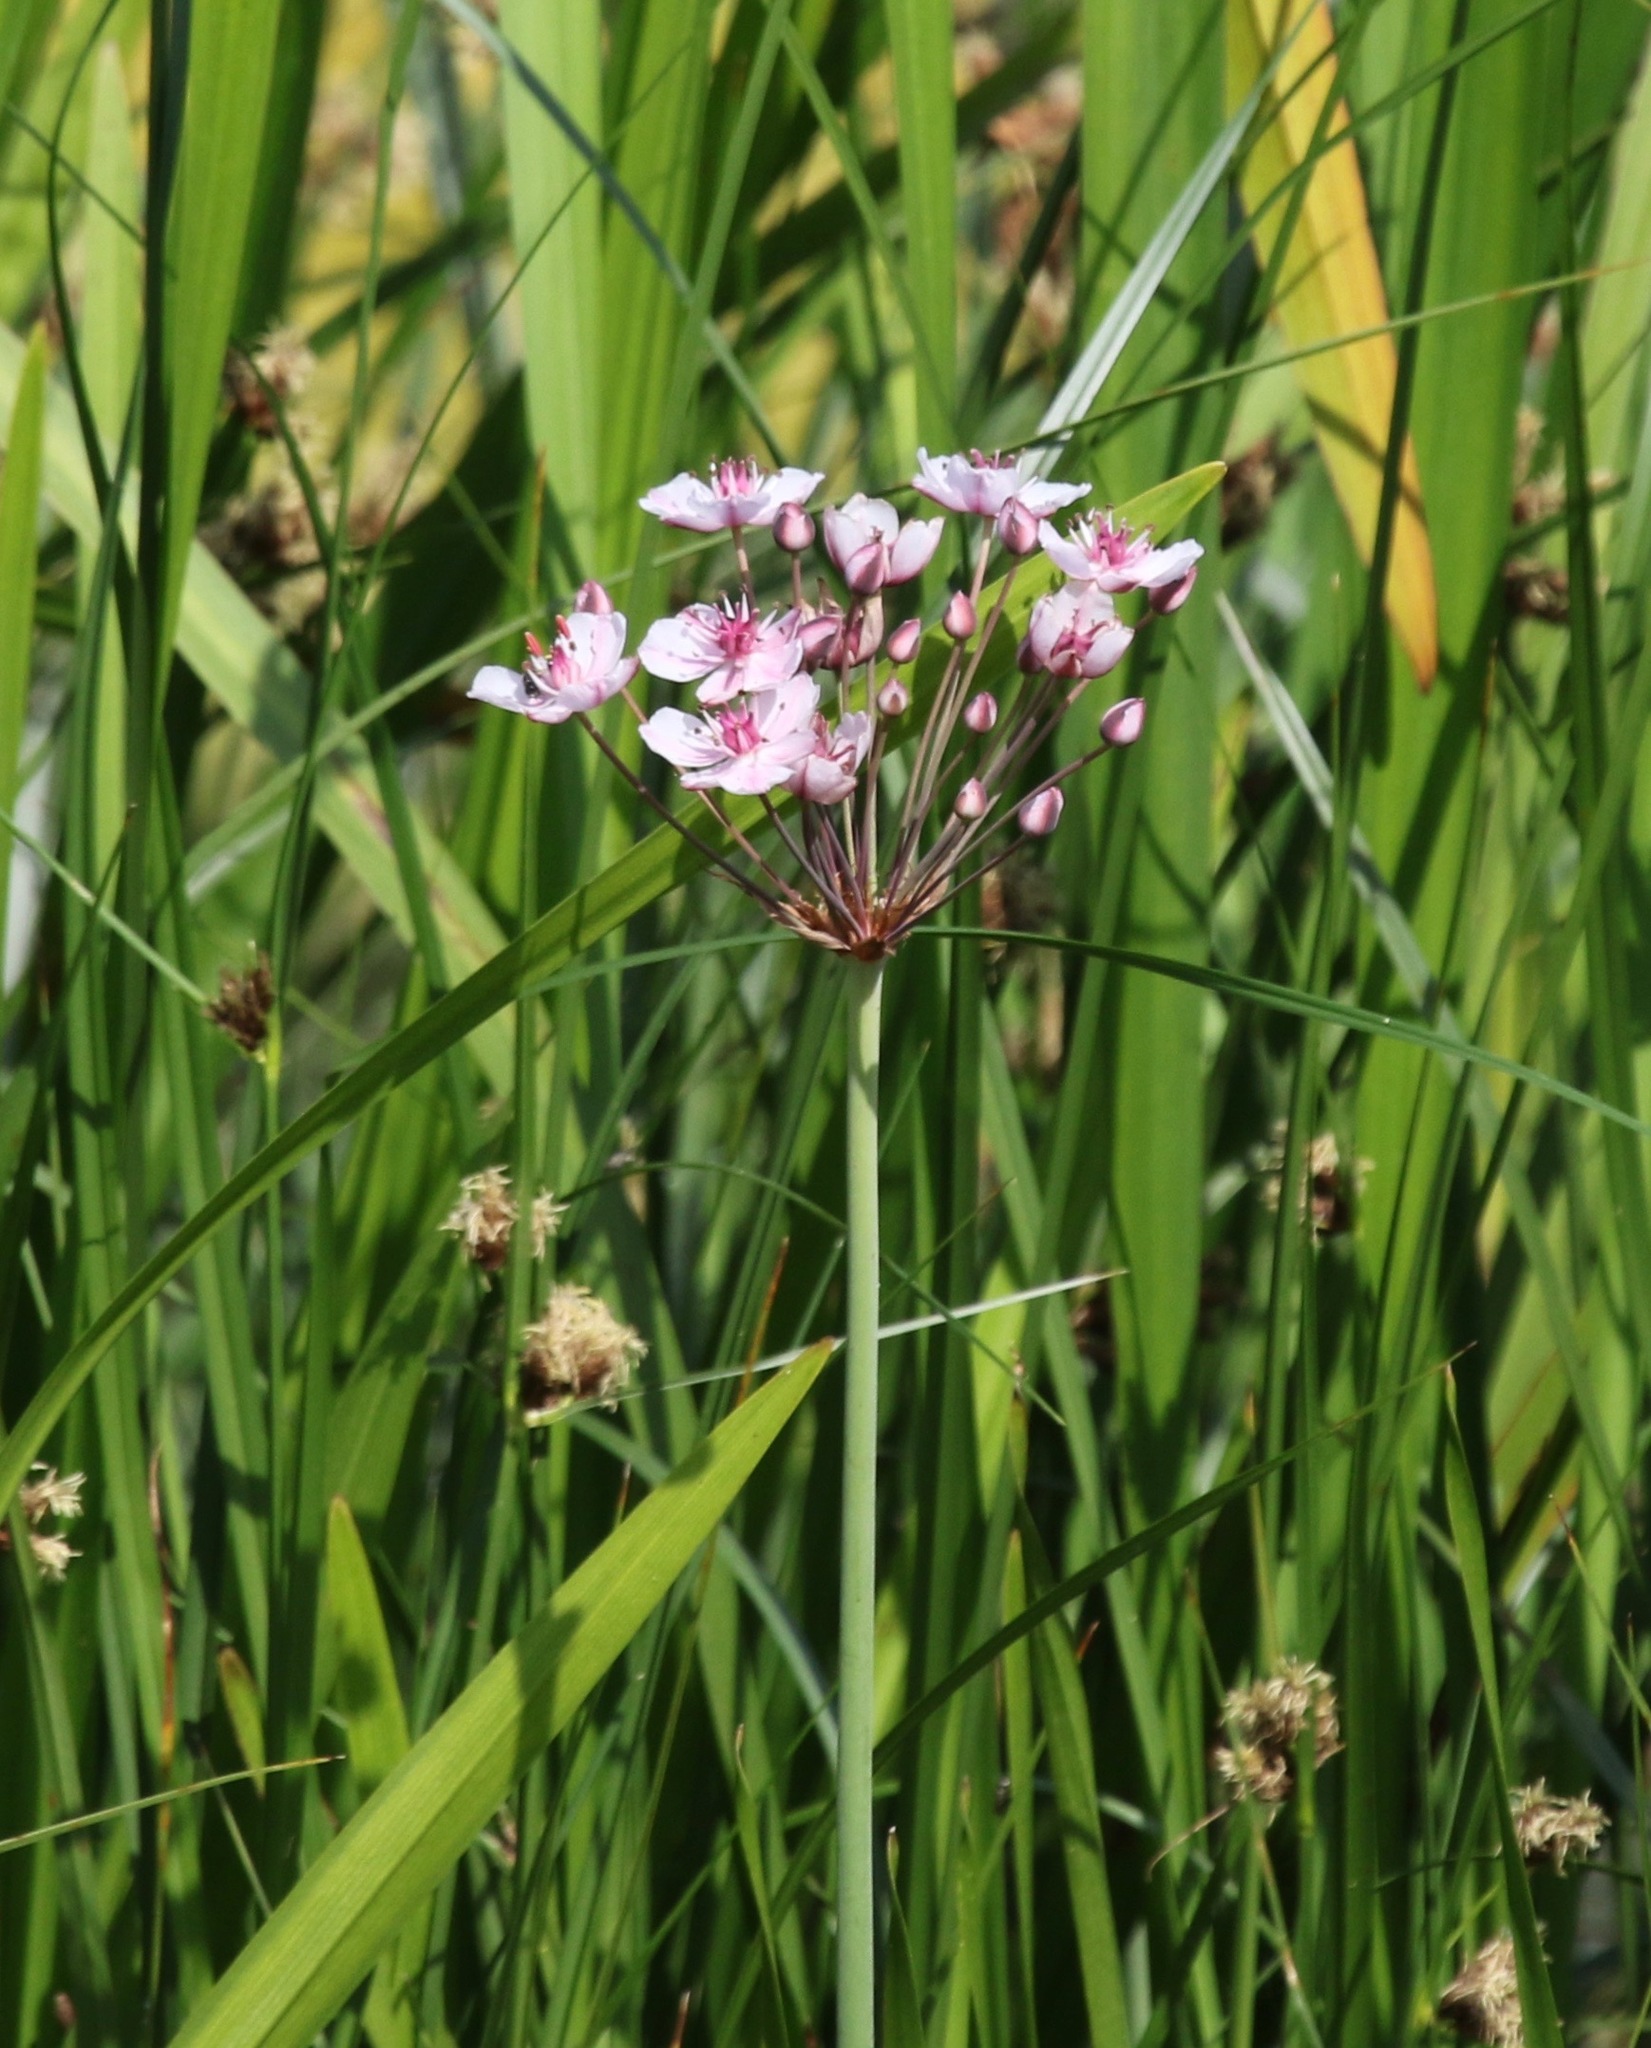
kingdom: Plantae
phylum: Tracheophyta
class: Liliopsida
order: Alismatales
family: Butomaceae
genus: Butomus
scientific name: Butomus umbellatus
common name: Flowering-rush
